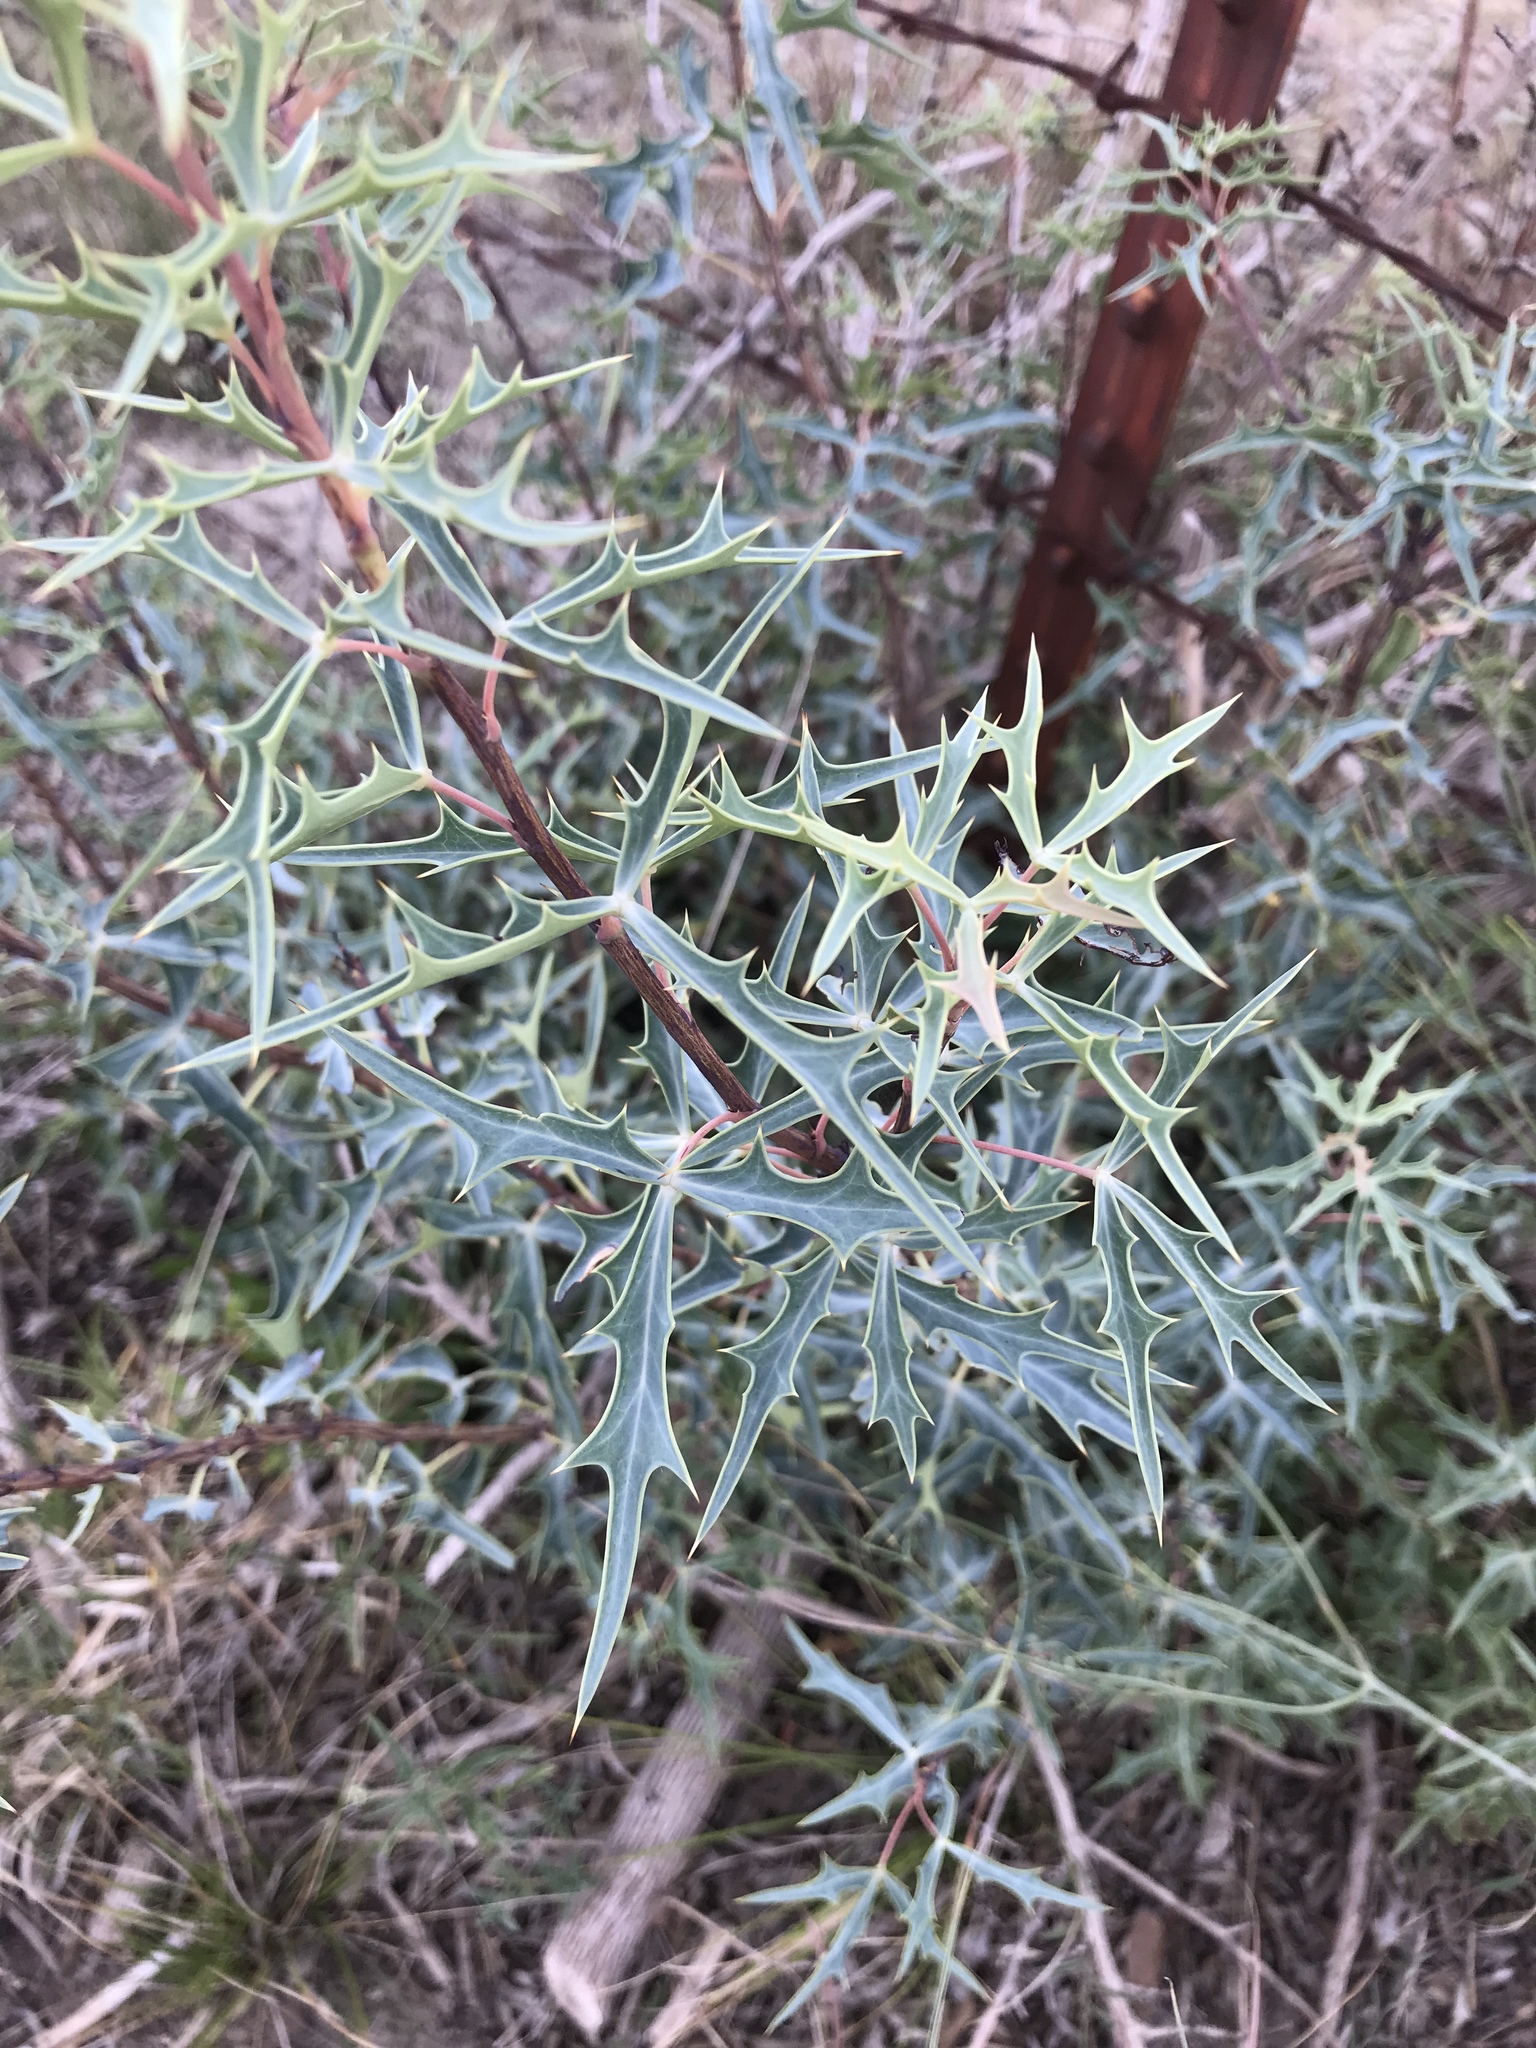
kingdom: Plantae
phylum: Tracheophyta
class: Magnoliopsida
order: Ranunculales
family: Berberidaceae
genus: Alloberberis
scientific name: Alloberberis trifoliolata
